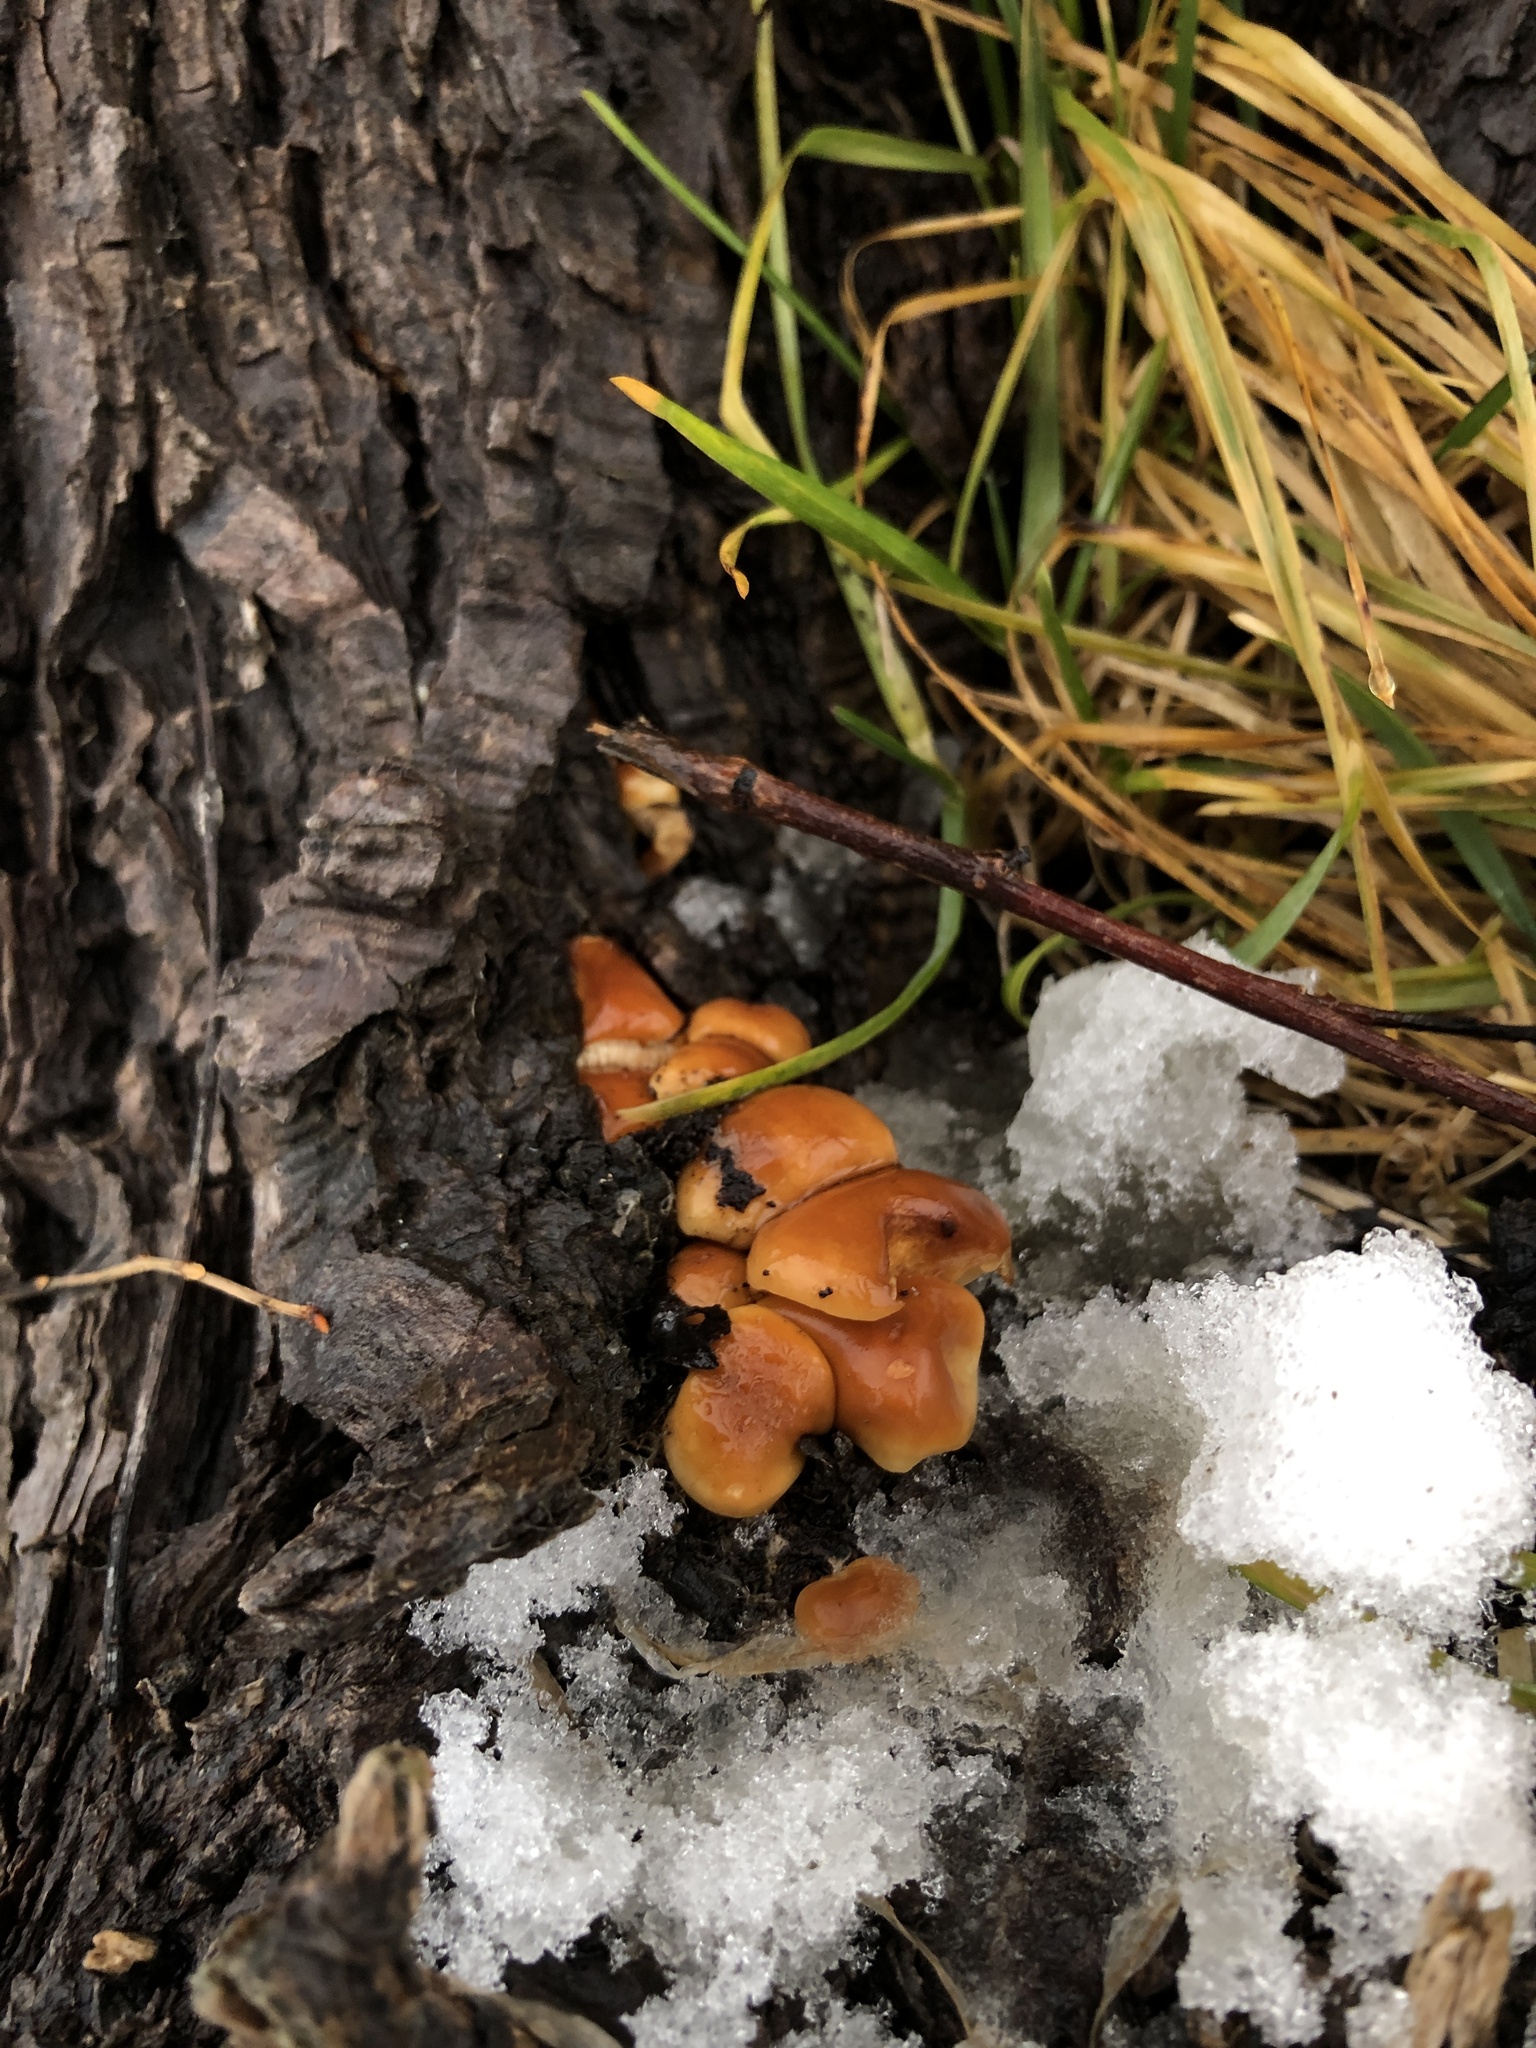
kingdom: Fungi
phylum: Basidiomycota
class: Agaricomycetes
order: Agaricales
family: Physalacriaceae
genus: Flammulina
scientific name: Flammulina velutipes
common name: Velvet shank
